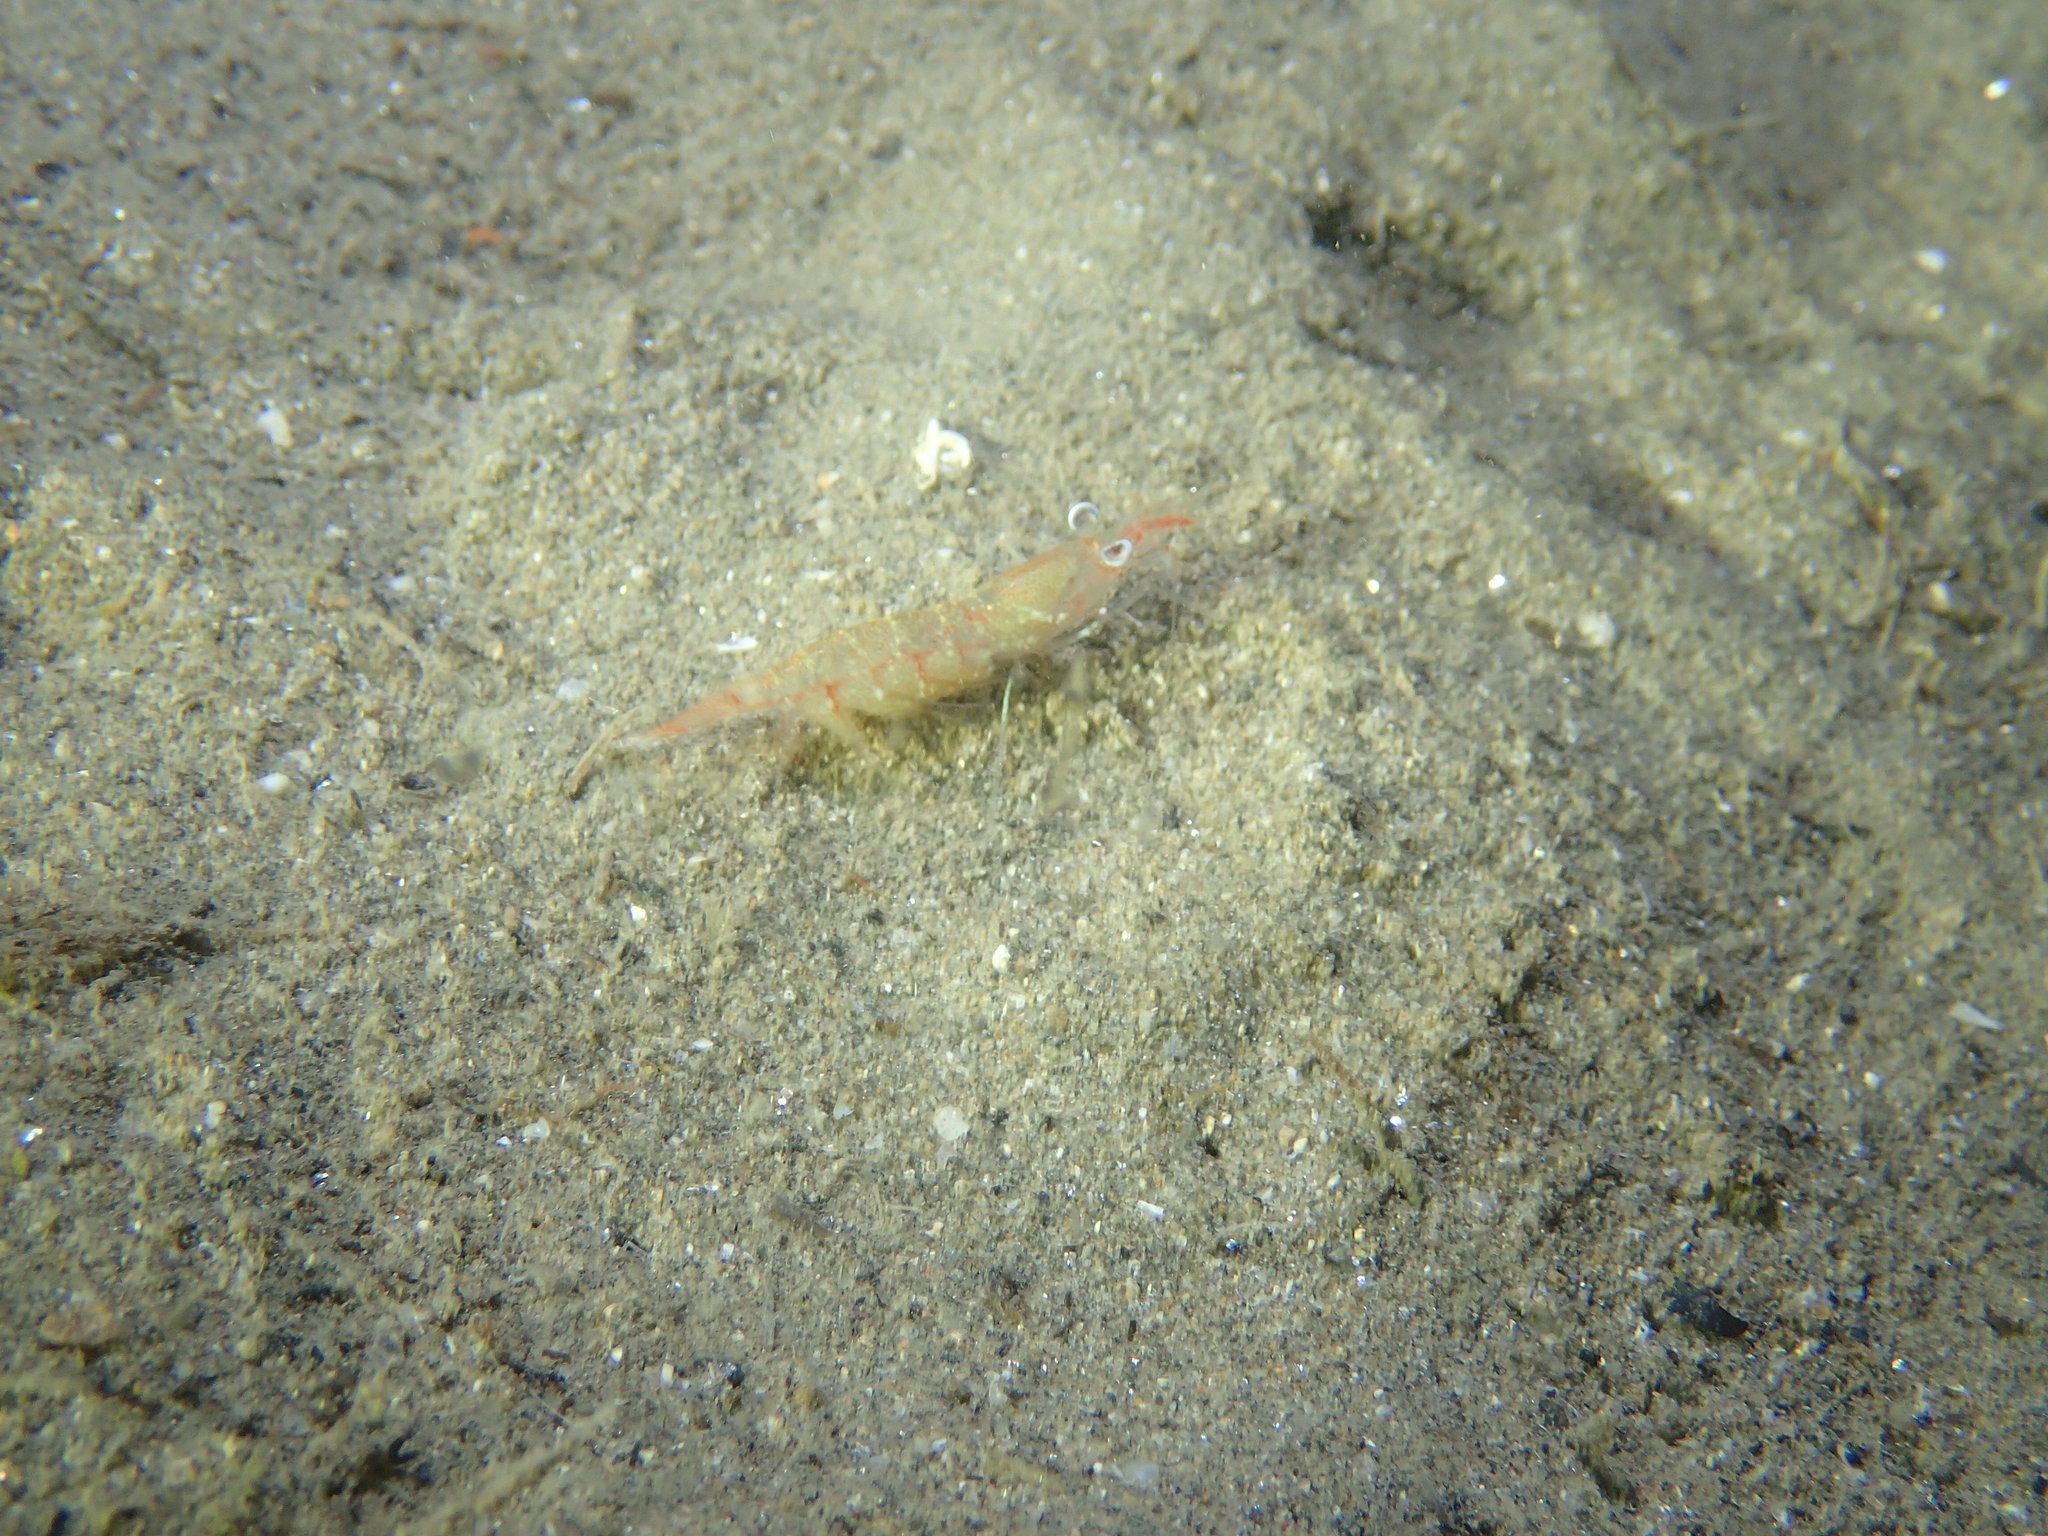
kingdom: Animalia
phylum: Arthropoda
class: Malacostraca
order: Decapoda
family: Processidae
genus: Processa
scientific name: Processa macrophthalma
